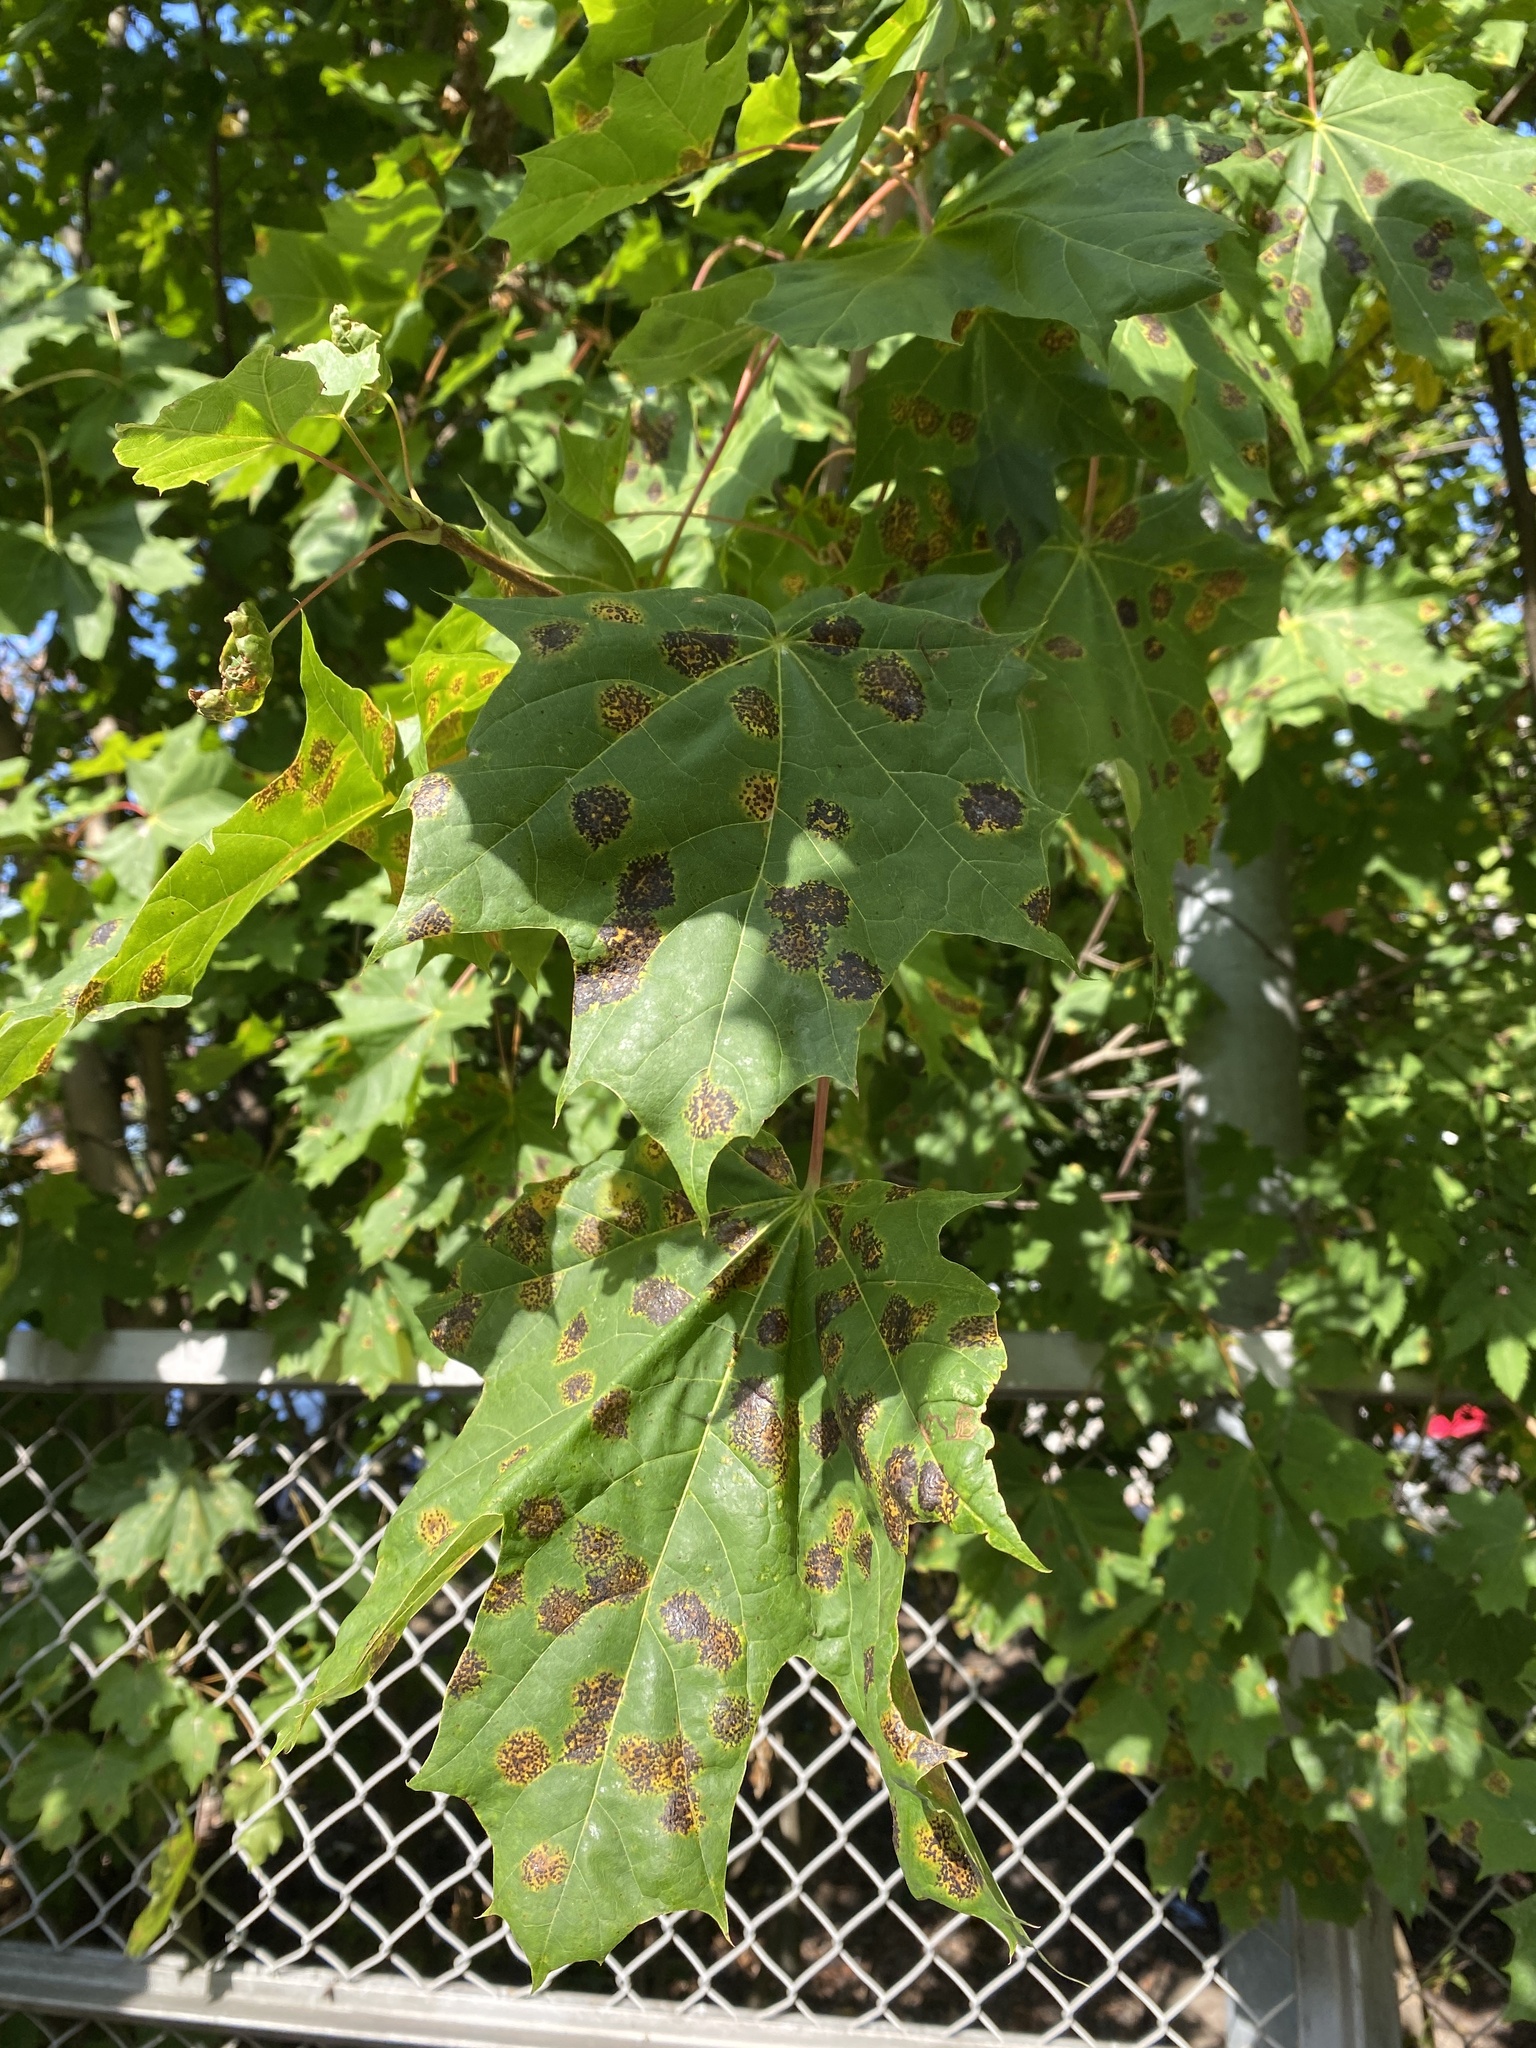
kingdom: Fungi
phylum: Ascomycota
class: Leotiomycetes
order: Rhytismatales
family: Rhytismataceae
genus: Rhytisma
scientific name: Rhytisma acerinum
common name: European tar spot
